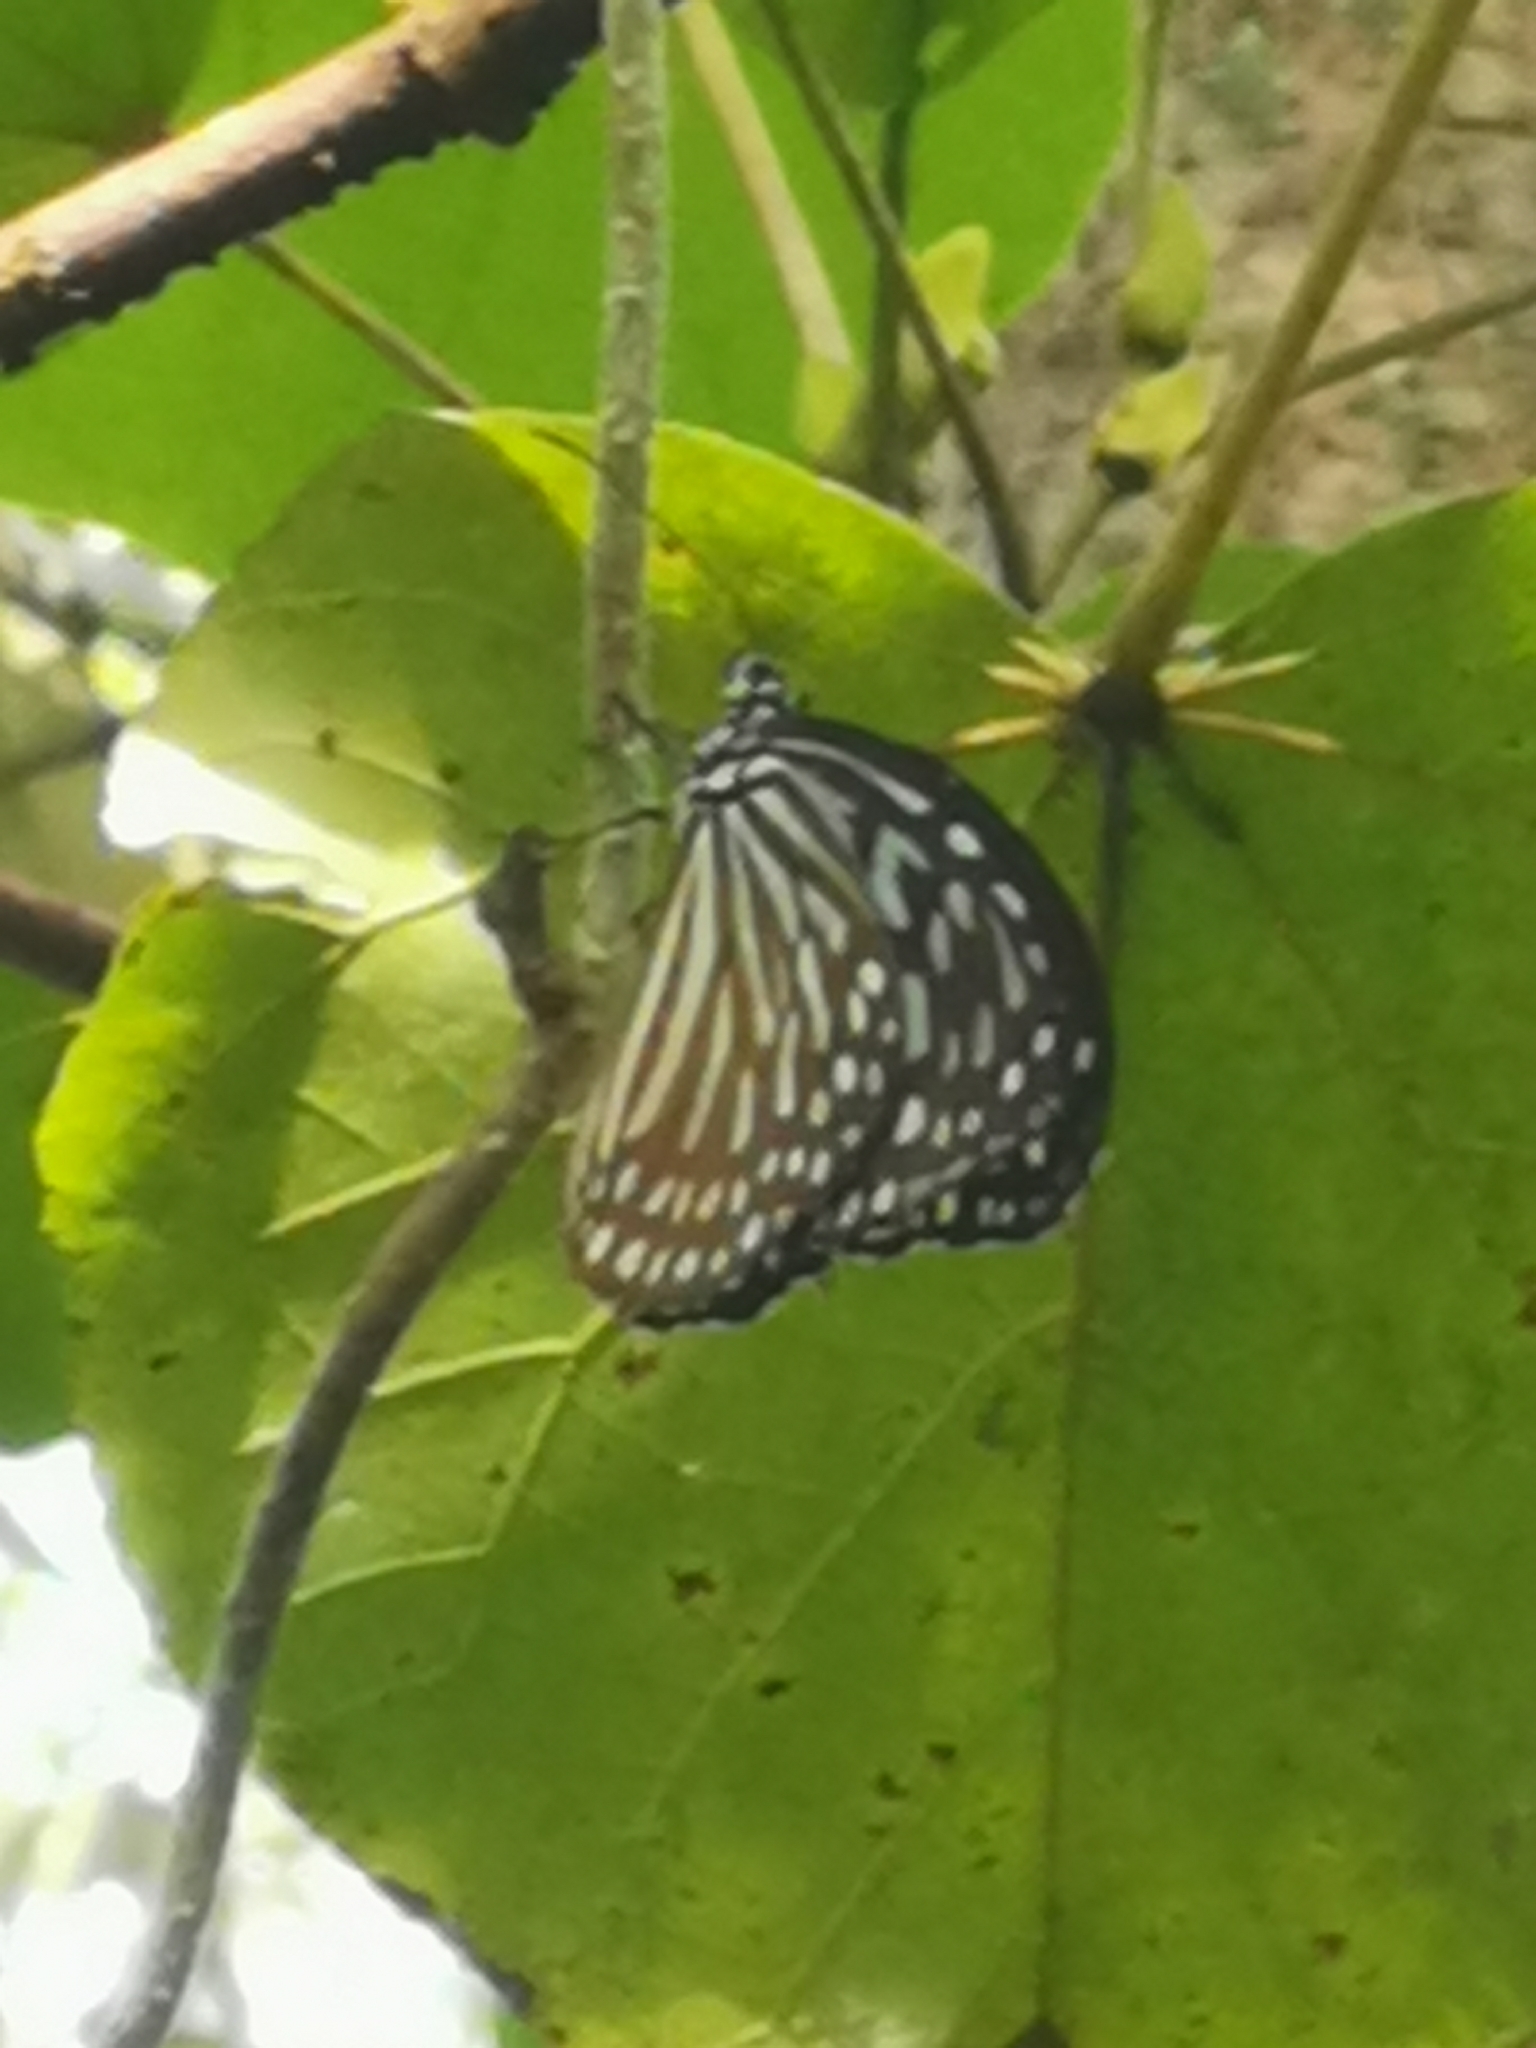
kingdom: Animalia
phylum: Arthropoda
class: Insecta
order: Lepidoptera
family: Nymphalidae
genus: Ideopsis
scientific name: Ideopsis vulgaris
